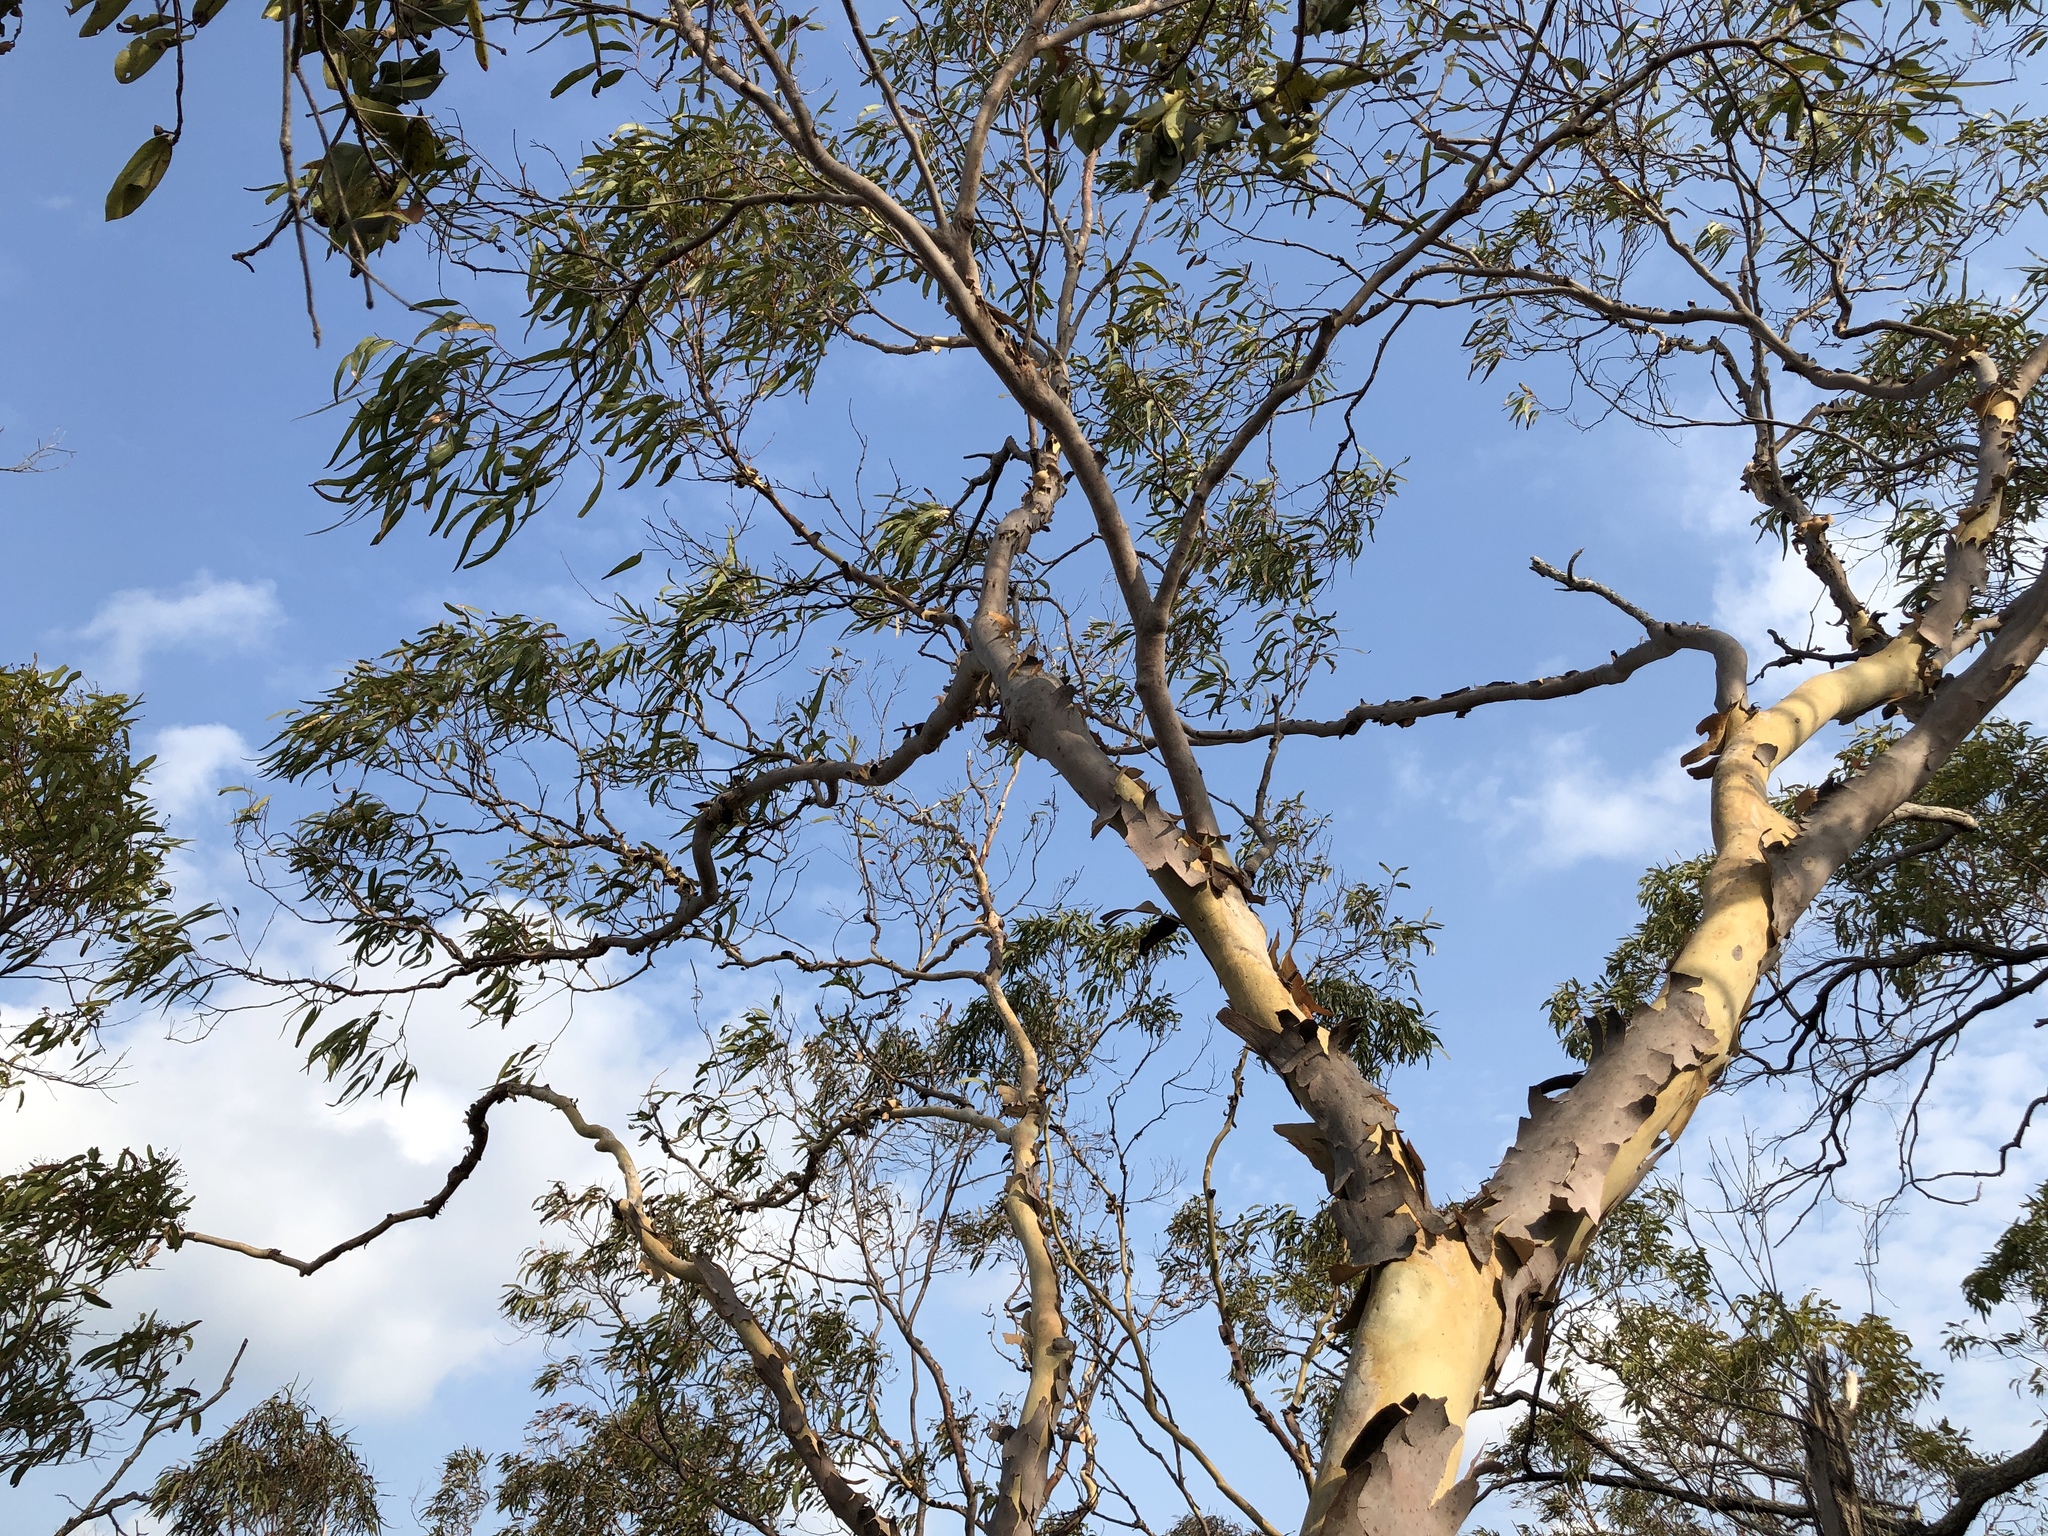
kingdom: Plantae
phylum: Tracheophyta
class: Magnoliopsida
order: Myrtales
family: Myrtaceae
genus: Corymbia
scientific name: Corymbia citriodora
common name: Lemonscented gum
